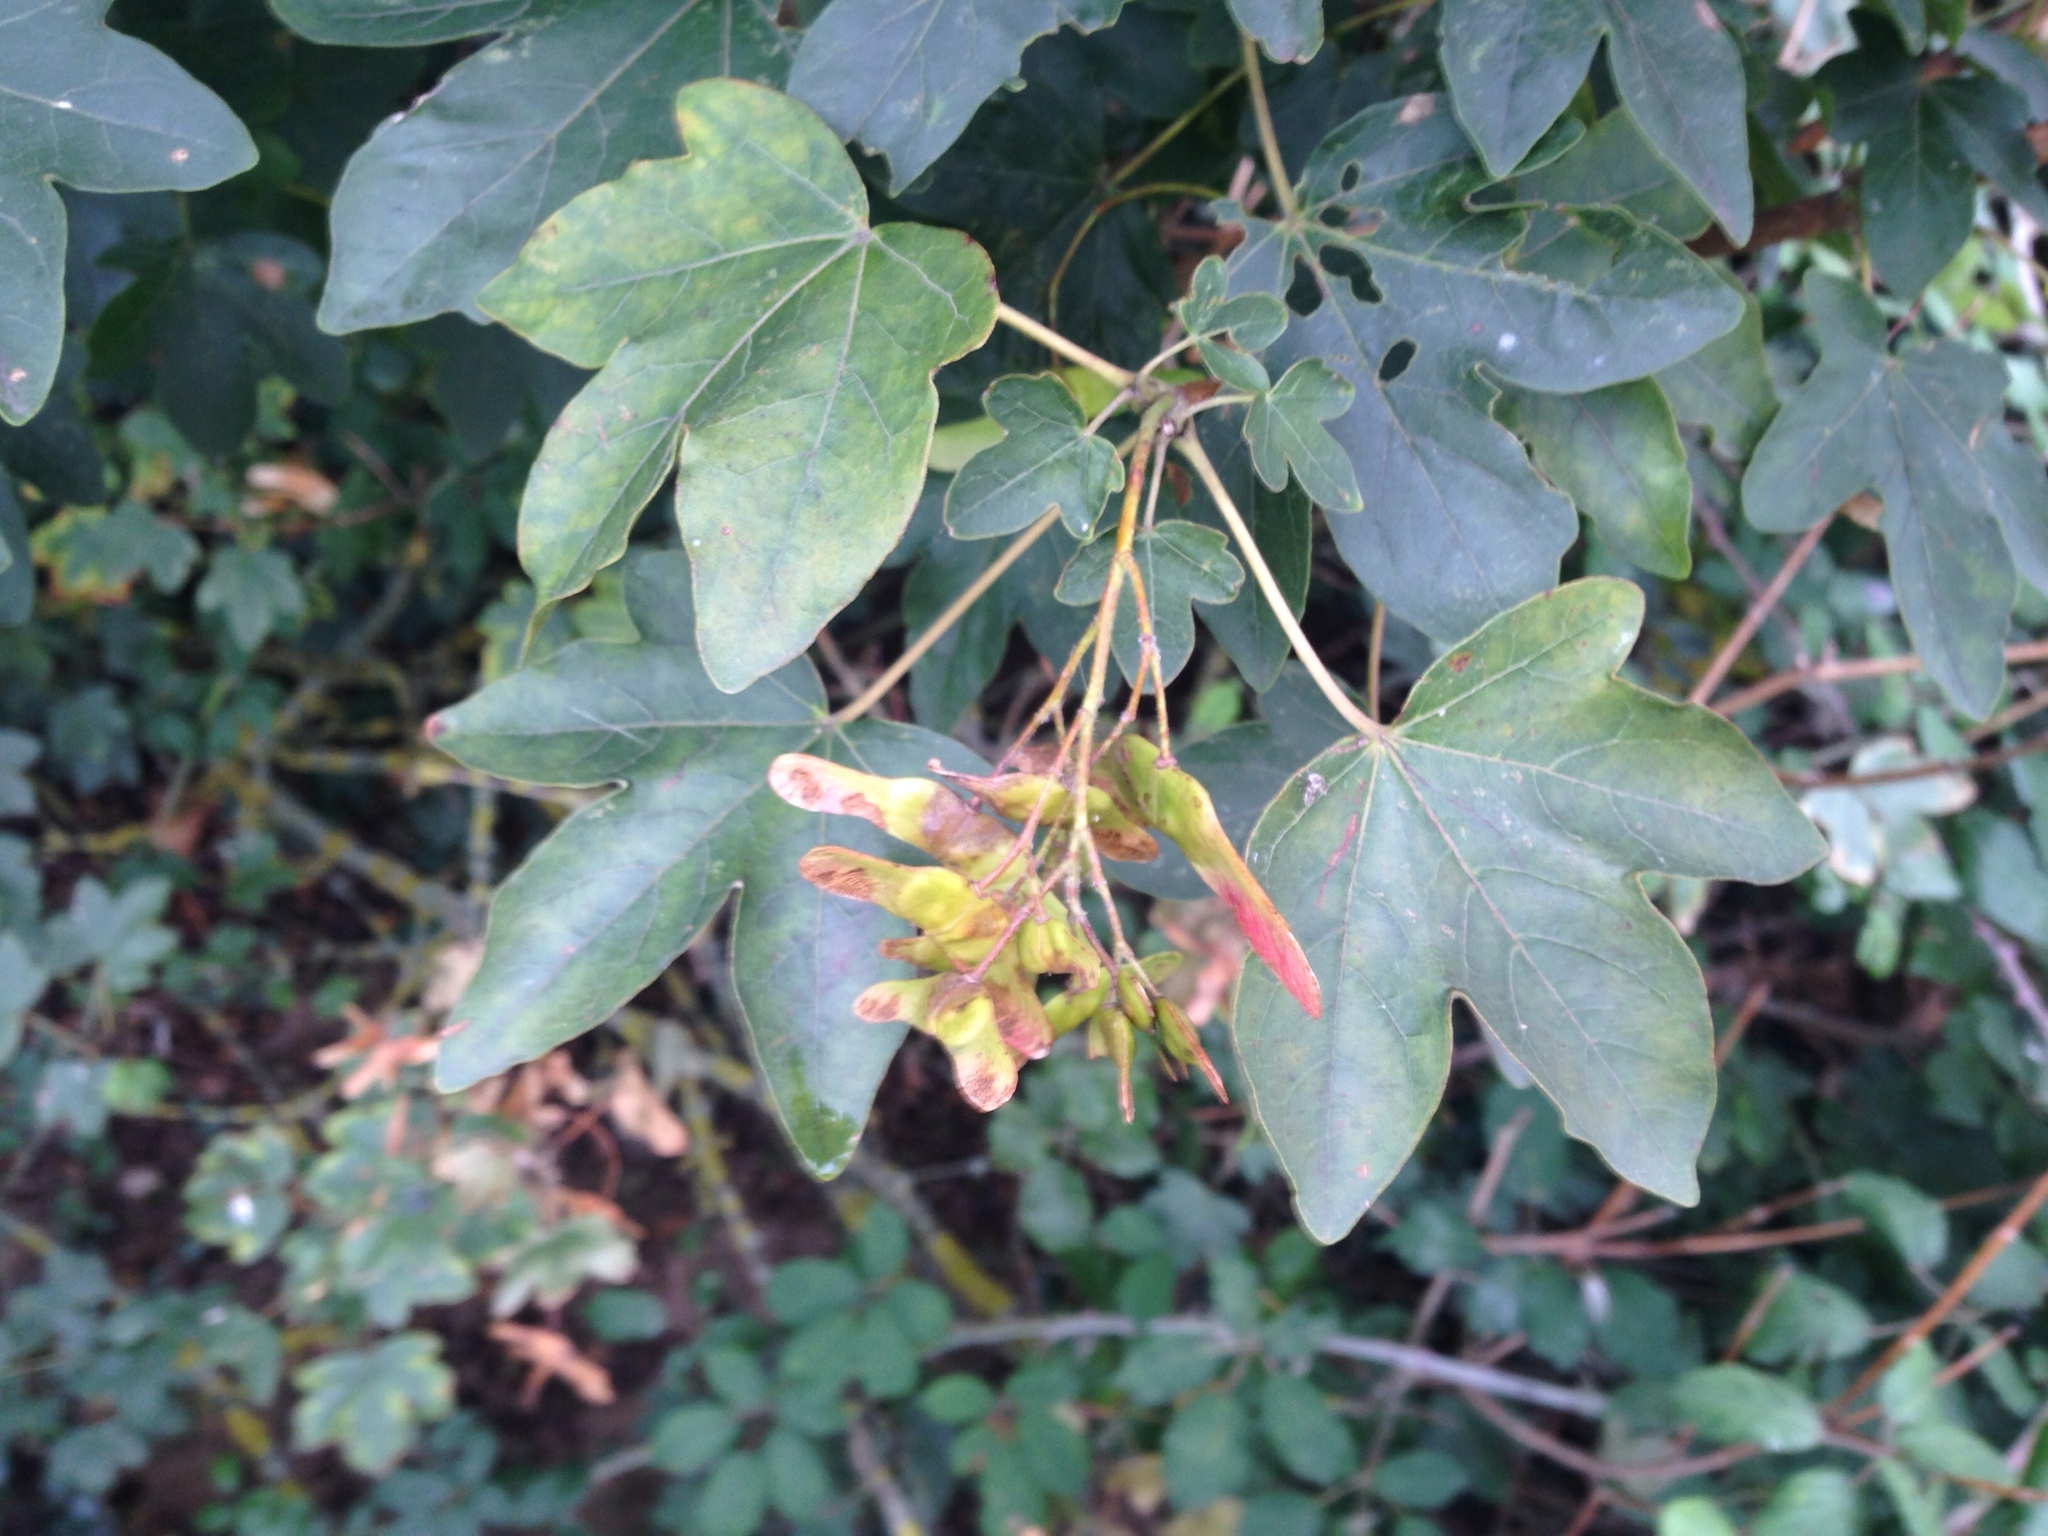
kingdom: Plantae
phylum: Tracheophyta
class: Magnoliopsida
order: Sapindales
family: Sapindaceae
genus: Acer
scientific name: Acer campestre
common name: Field maple
